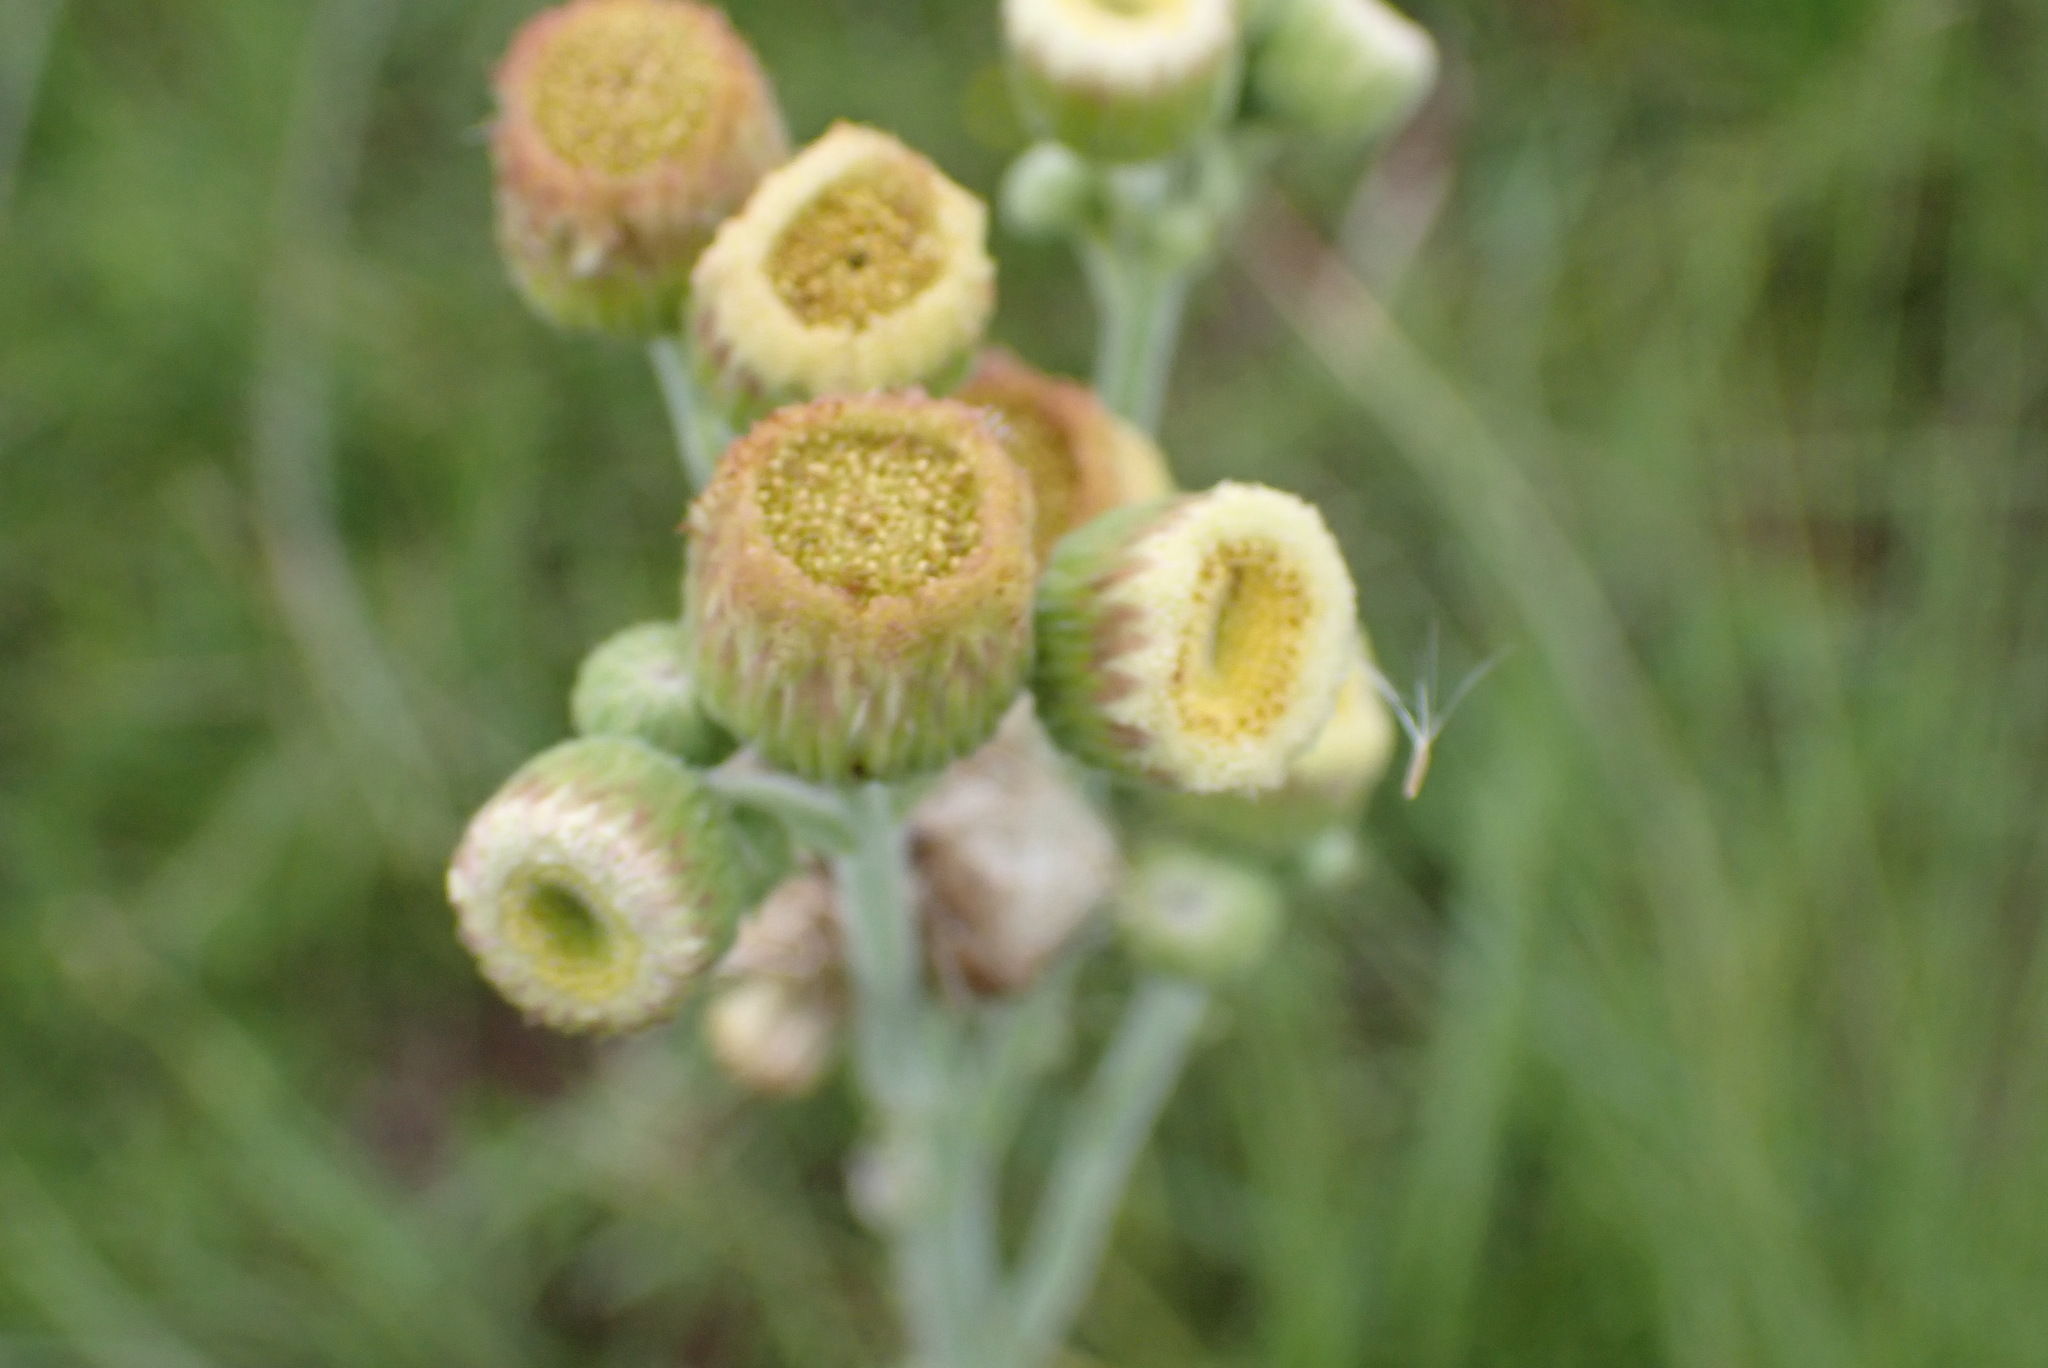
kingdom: Plantae
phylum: Tracheophyta
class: Magnoliopsida
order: Asterales
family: Asteraceae
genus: Erigeron
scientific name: Erigeron primulifolius
